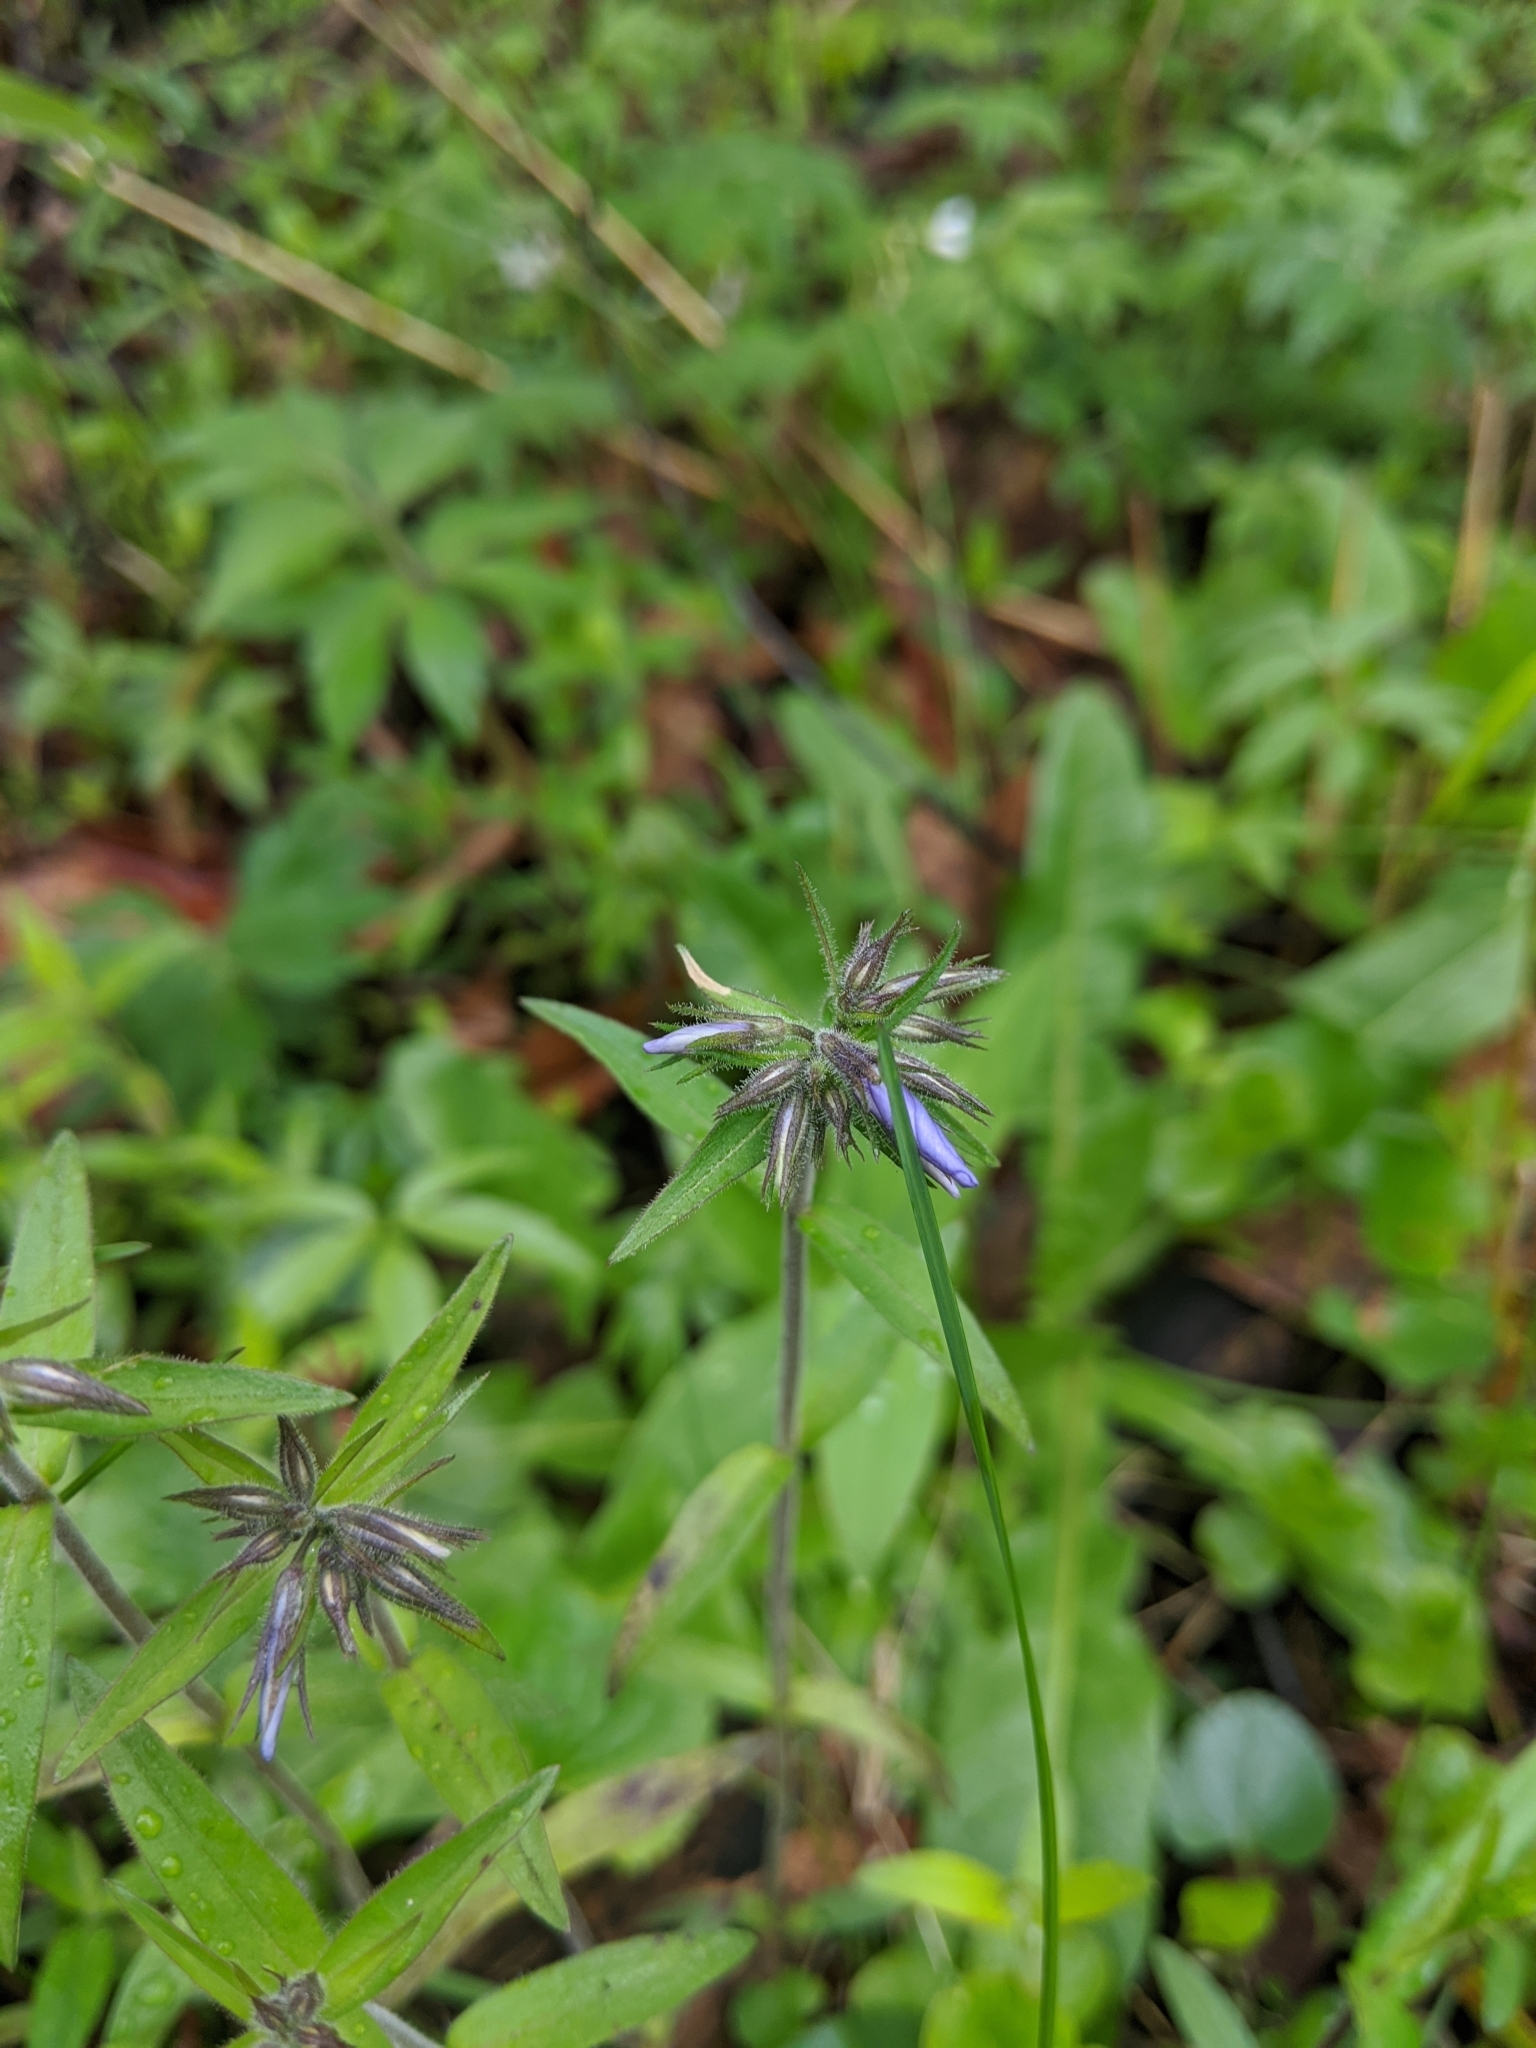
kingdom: Plantae
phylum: Tracheophyta
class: Magnoliopsida
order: Ericales
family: Polemoniaceae
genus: Phlox
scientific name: Phlox divaricata
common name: Blue phlox
